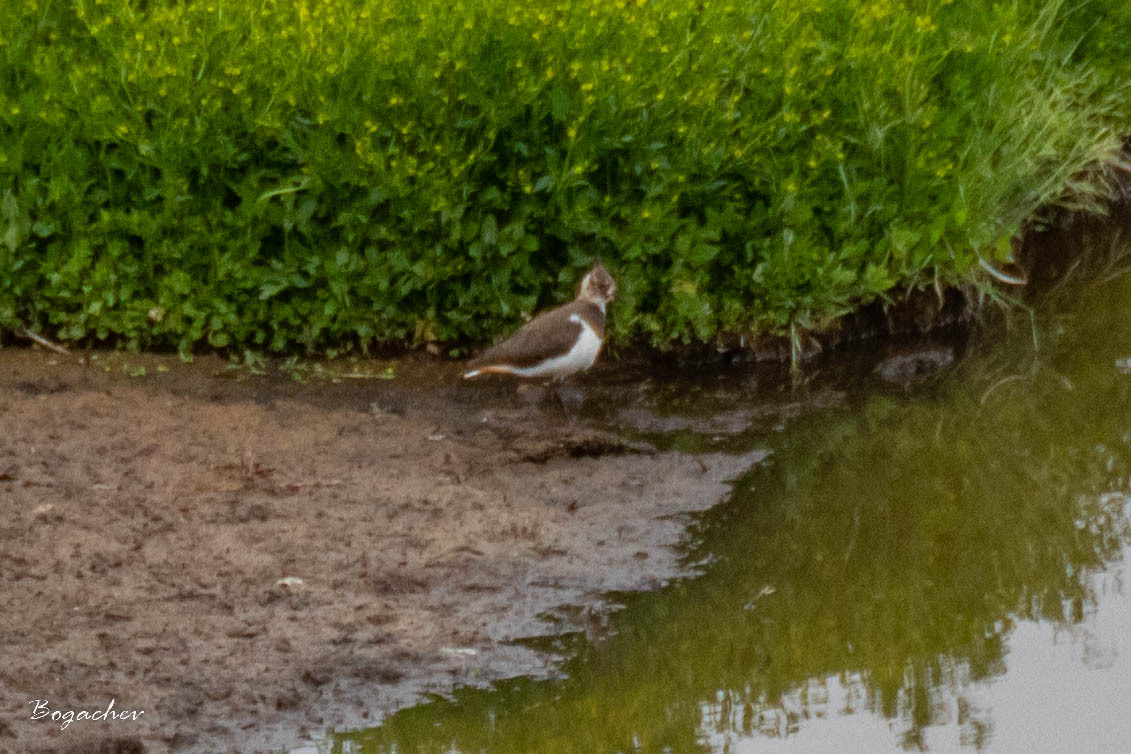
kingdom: Animalia
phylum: Chordata
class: Aves
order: Charadriiformes
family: Charadriidae
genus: Vanellus
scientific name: Vanellus vanellus
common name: Northern lapwing
